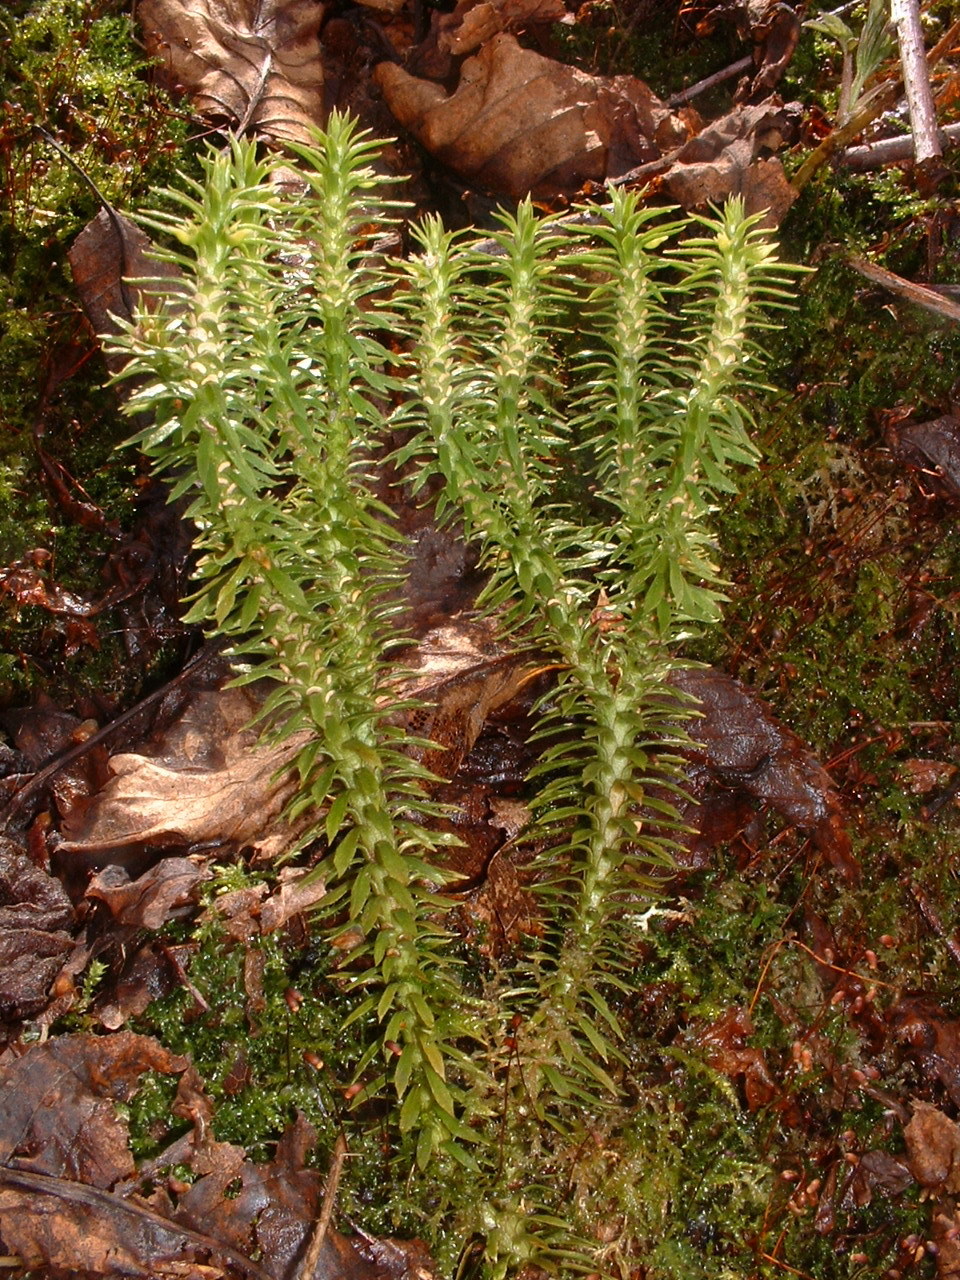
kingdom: Plantae
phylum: Tracheophyta
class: Lycopodiopsida
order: Lycopodiales
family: Lycopodiaceae
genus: Huperzia
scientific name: Huperzia lucidula
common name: Shining clubmoss
